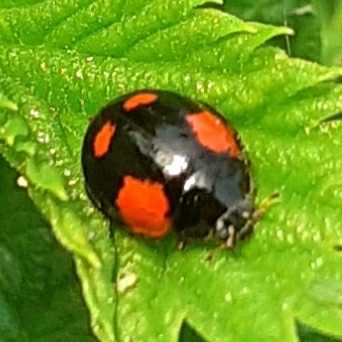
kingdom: Animalia
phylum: Arthropoda
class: Insecta
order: Coleoptera
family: Coccinellidae
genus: Adalia
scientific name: Adalia bipunctata
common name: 2-spot ladybird
